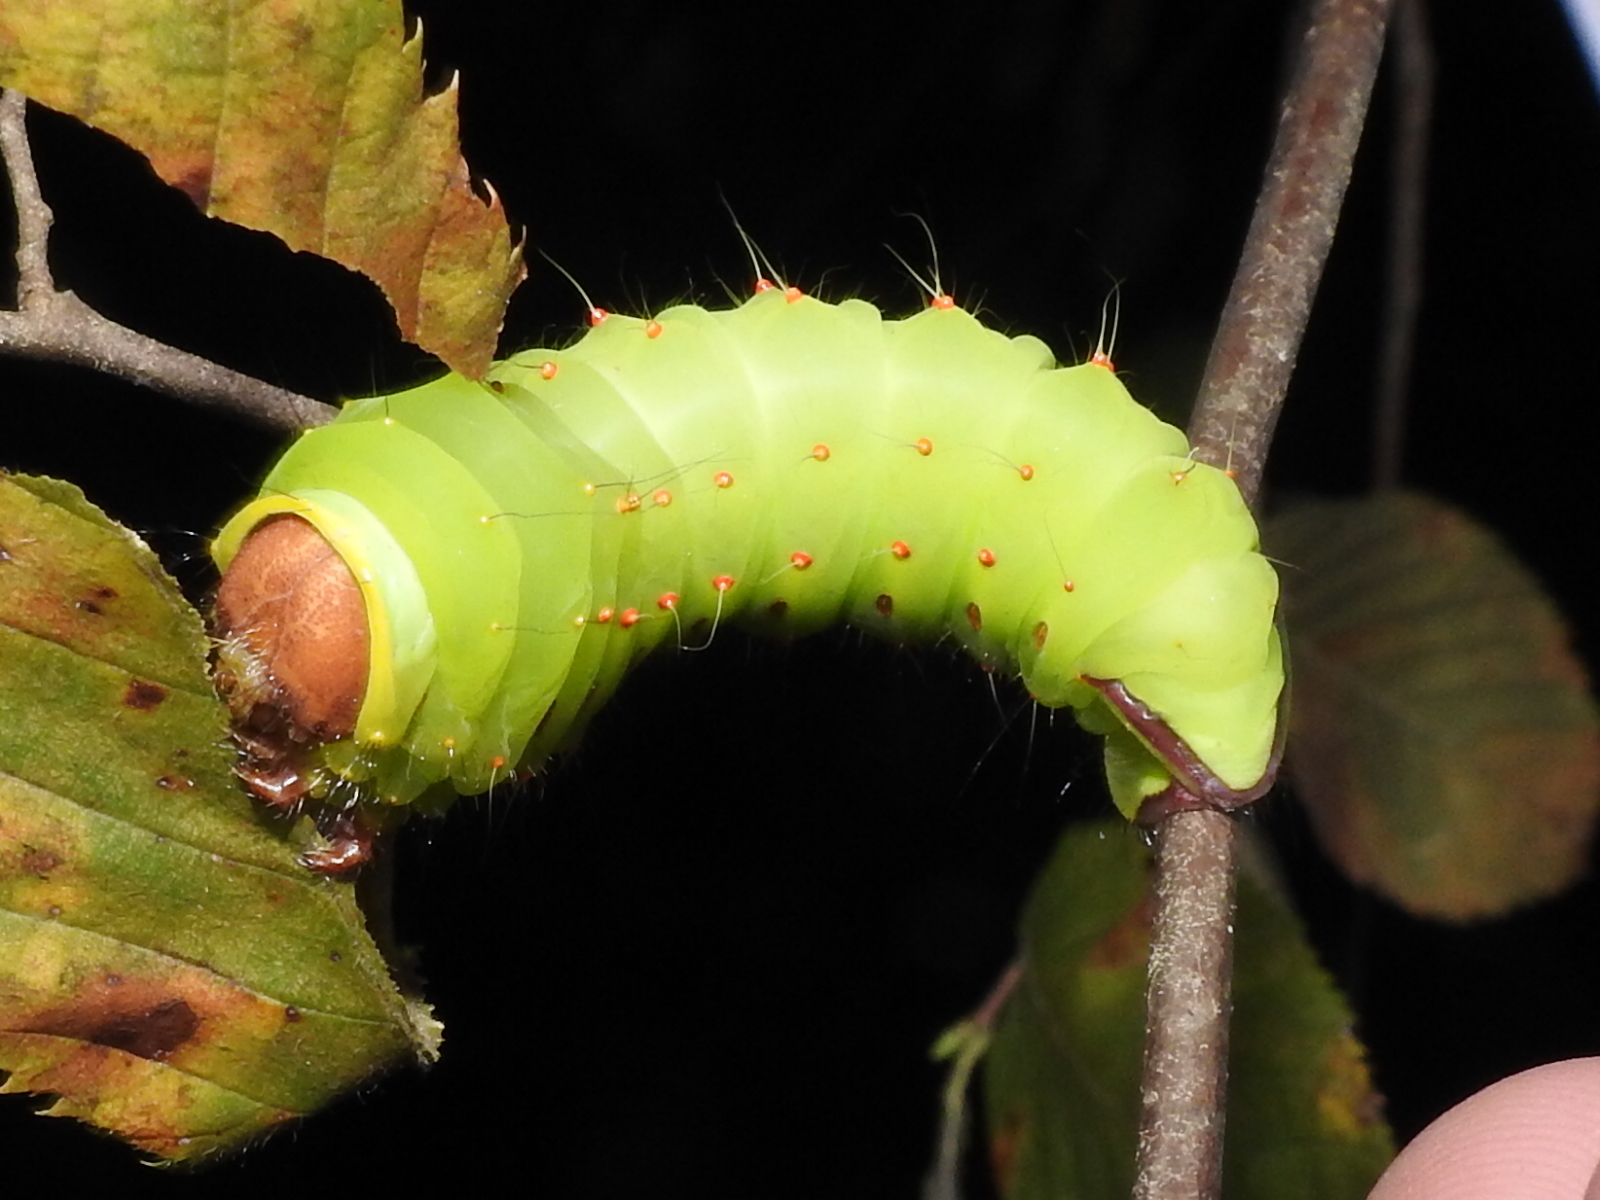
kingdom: Animalia
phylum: Arthropoda
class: Insecta
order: Lepidoptera
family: Saturniidae
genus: Antheraea
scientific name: Antheraea polyphemus
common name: Polyphemus moth
